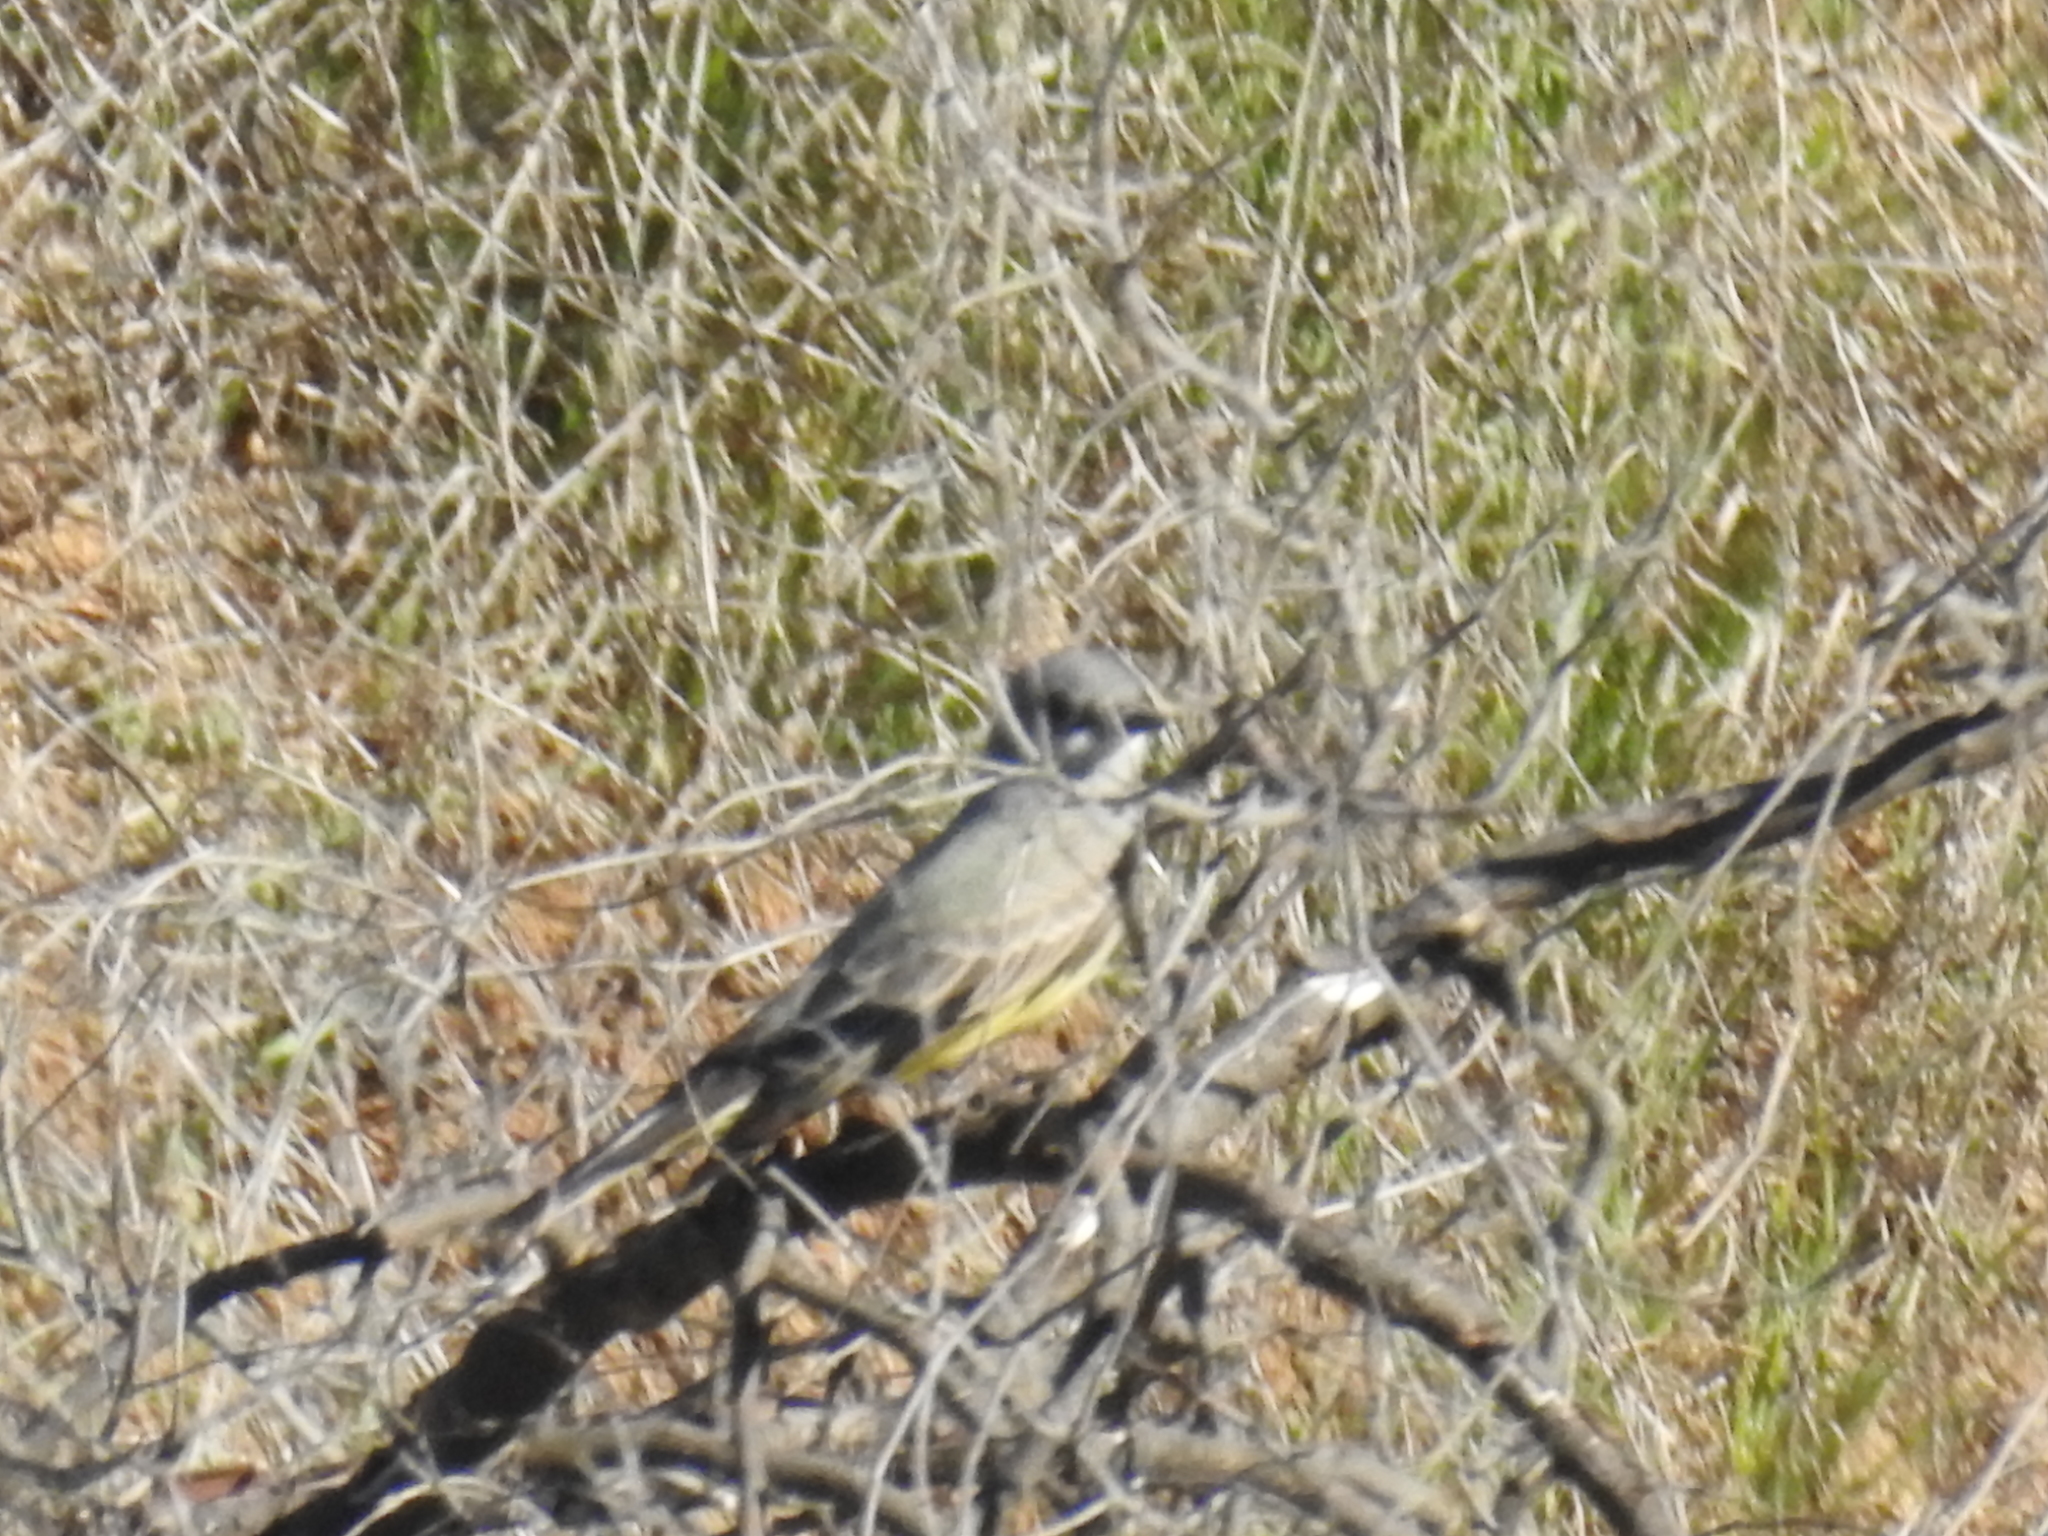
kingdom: Animalia
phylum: Chordata
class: Aves
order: Passeriformes
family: Tyrannidae
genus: Tyrannus
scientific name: Tyrannus vociferans
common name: Cassin's kingbird
